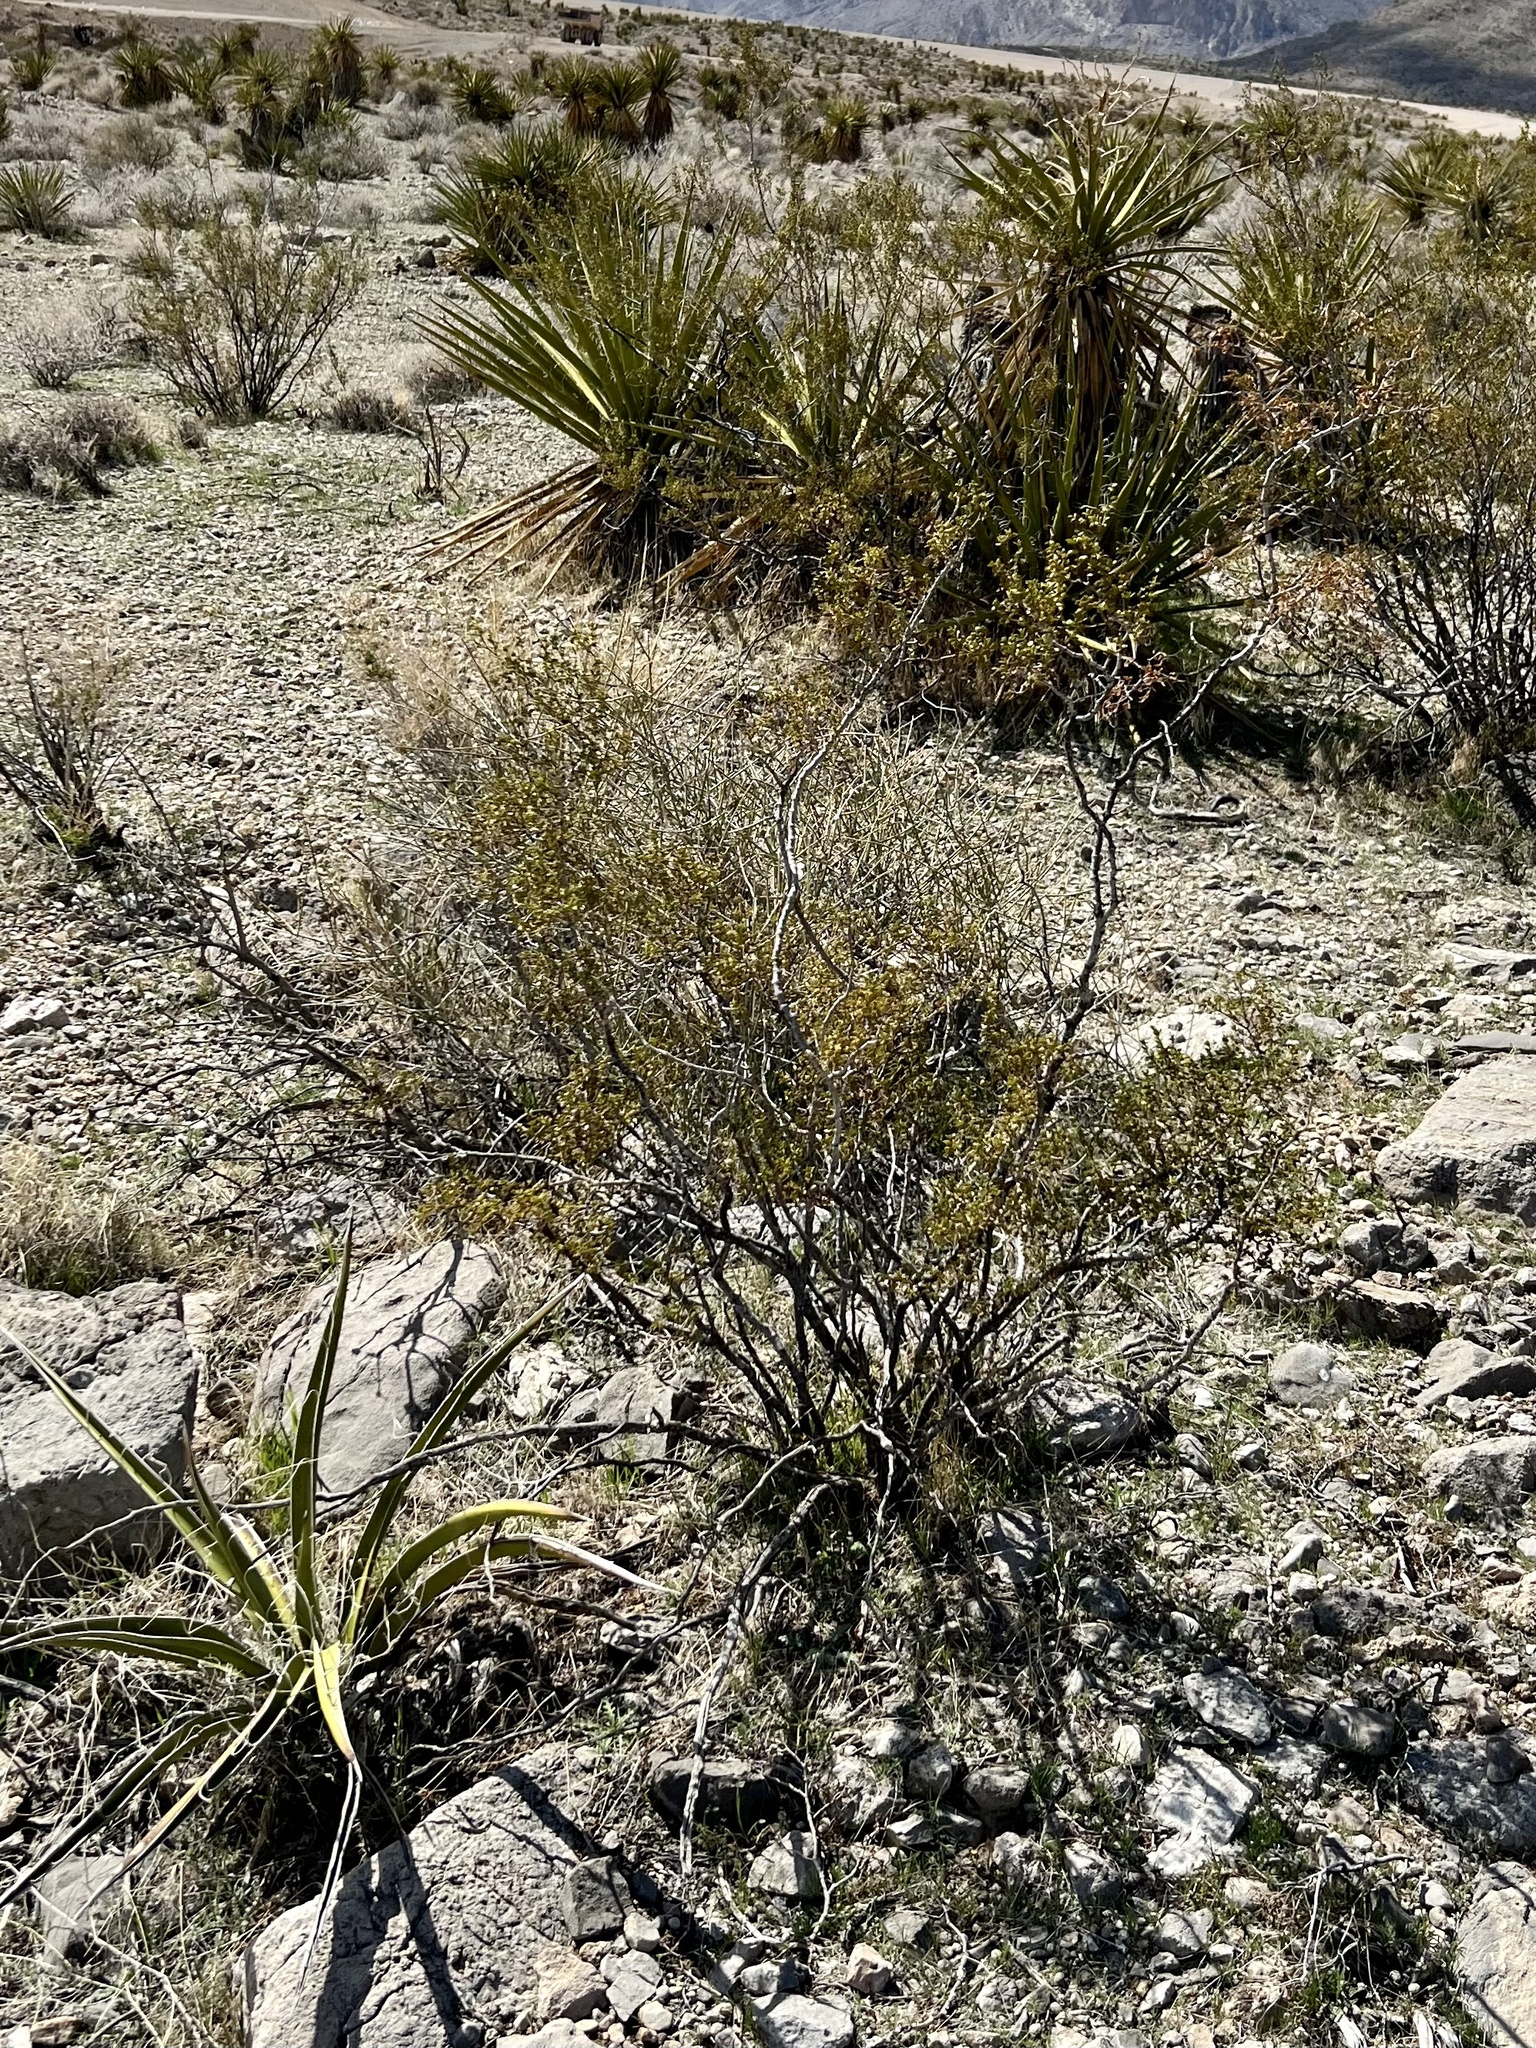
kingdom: Plantae
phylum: Tracheophyta
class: Magnoliopsida
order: Zygophyllales
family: Zygophyllaceae
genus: Larrea
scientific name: Larrea tridentata
